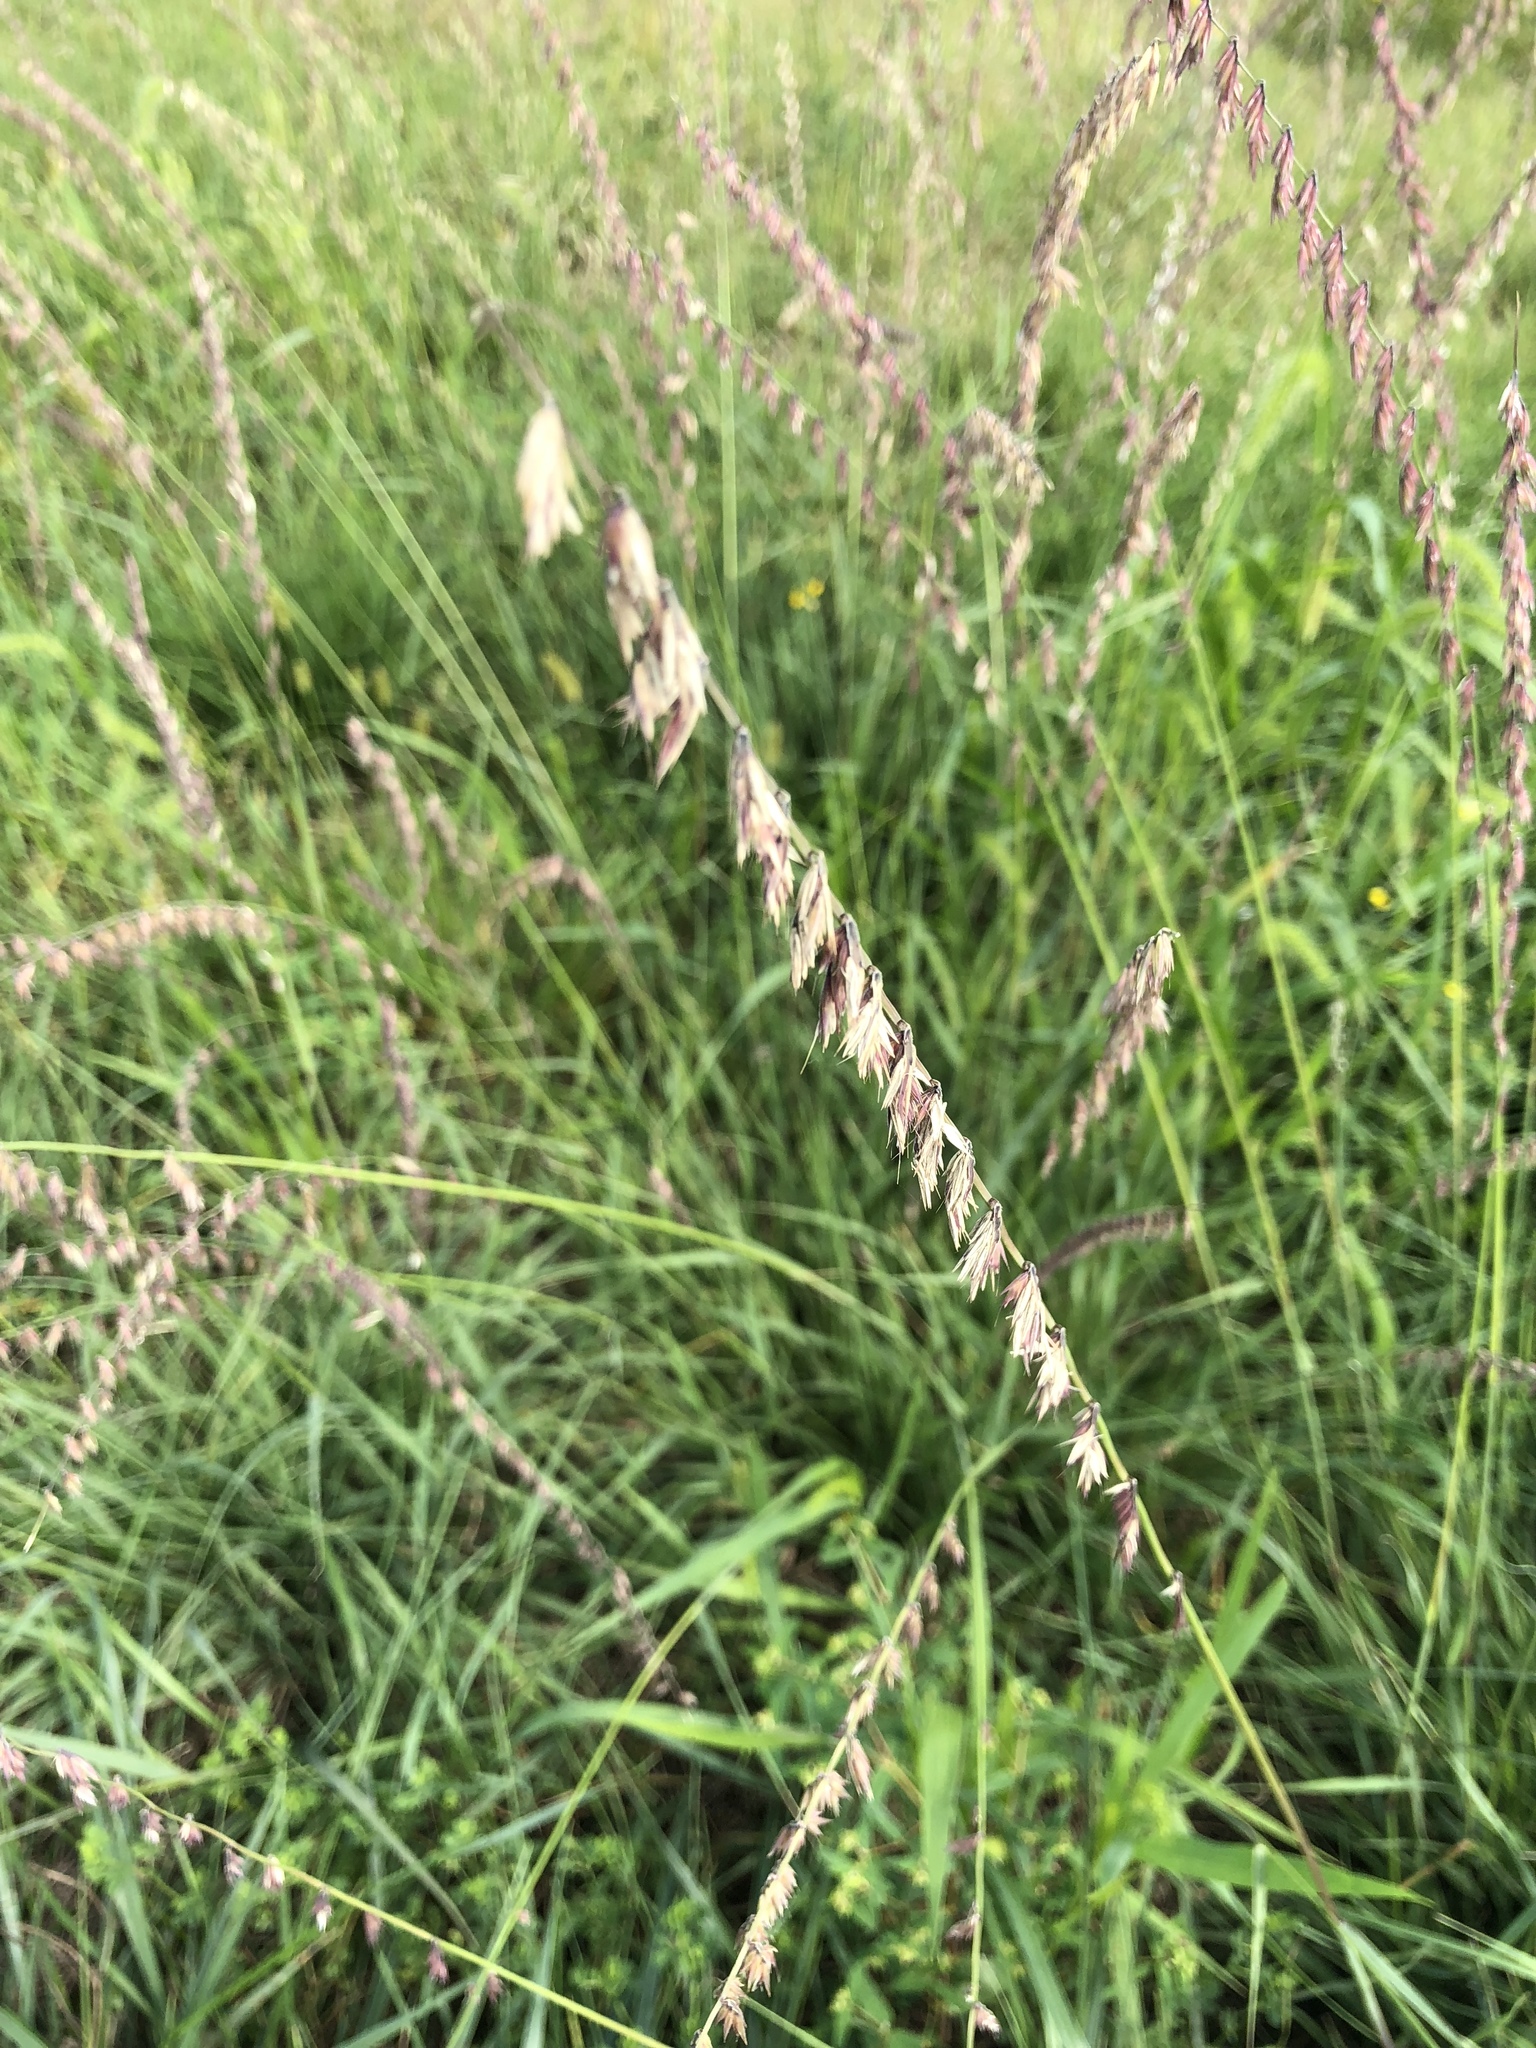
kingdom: Plantae
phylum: Tracheophyta
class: Liliopsida
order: Poales
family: Poaceae
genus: Bouteloua
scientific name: Bouteloua curtipendula
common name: Side-oats grama
